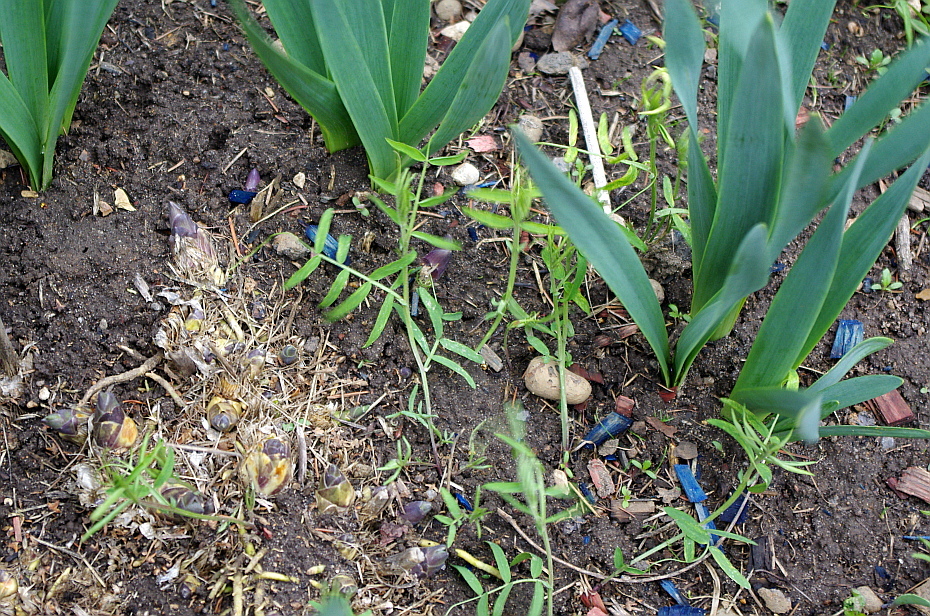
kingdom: Plantae
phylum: Tracheophyta
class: Magnoliopsida
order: Fabales
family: Fabaceae
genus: Vicia
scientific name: Vicia cracca
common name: Bird vetch
